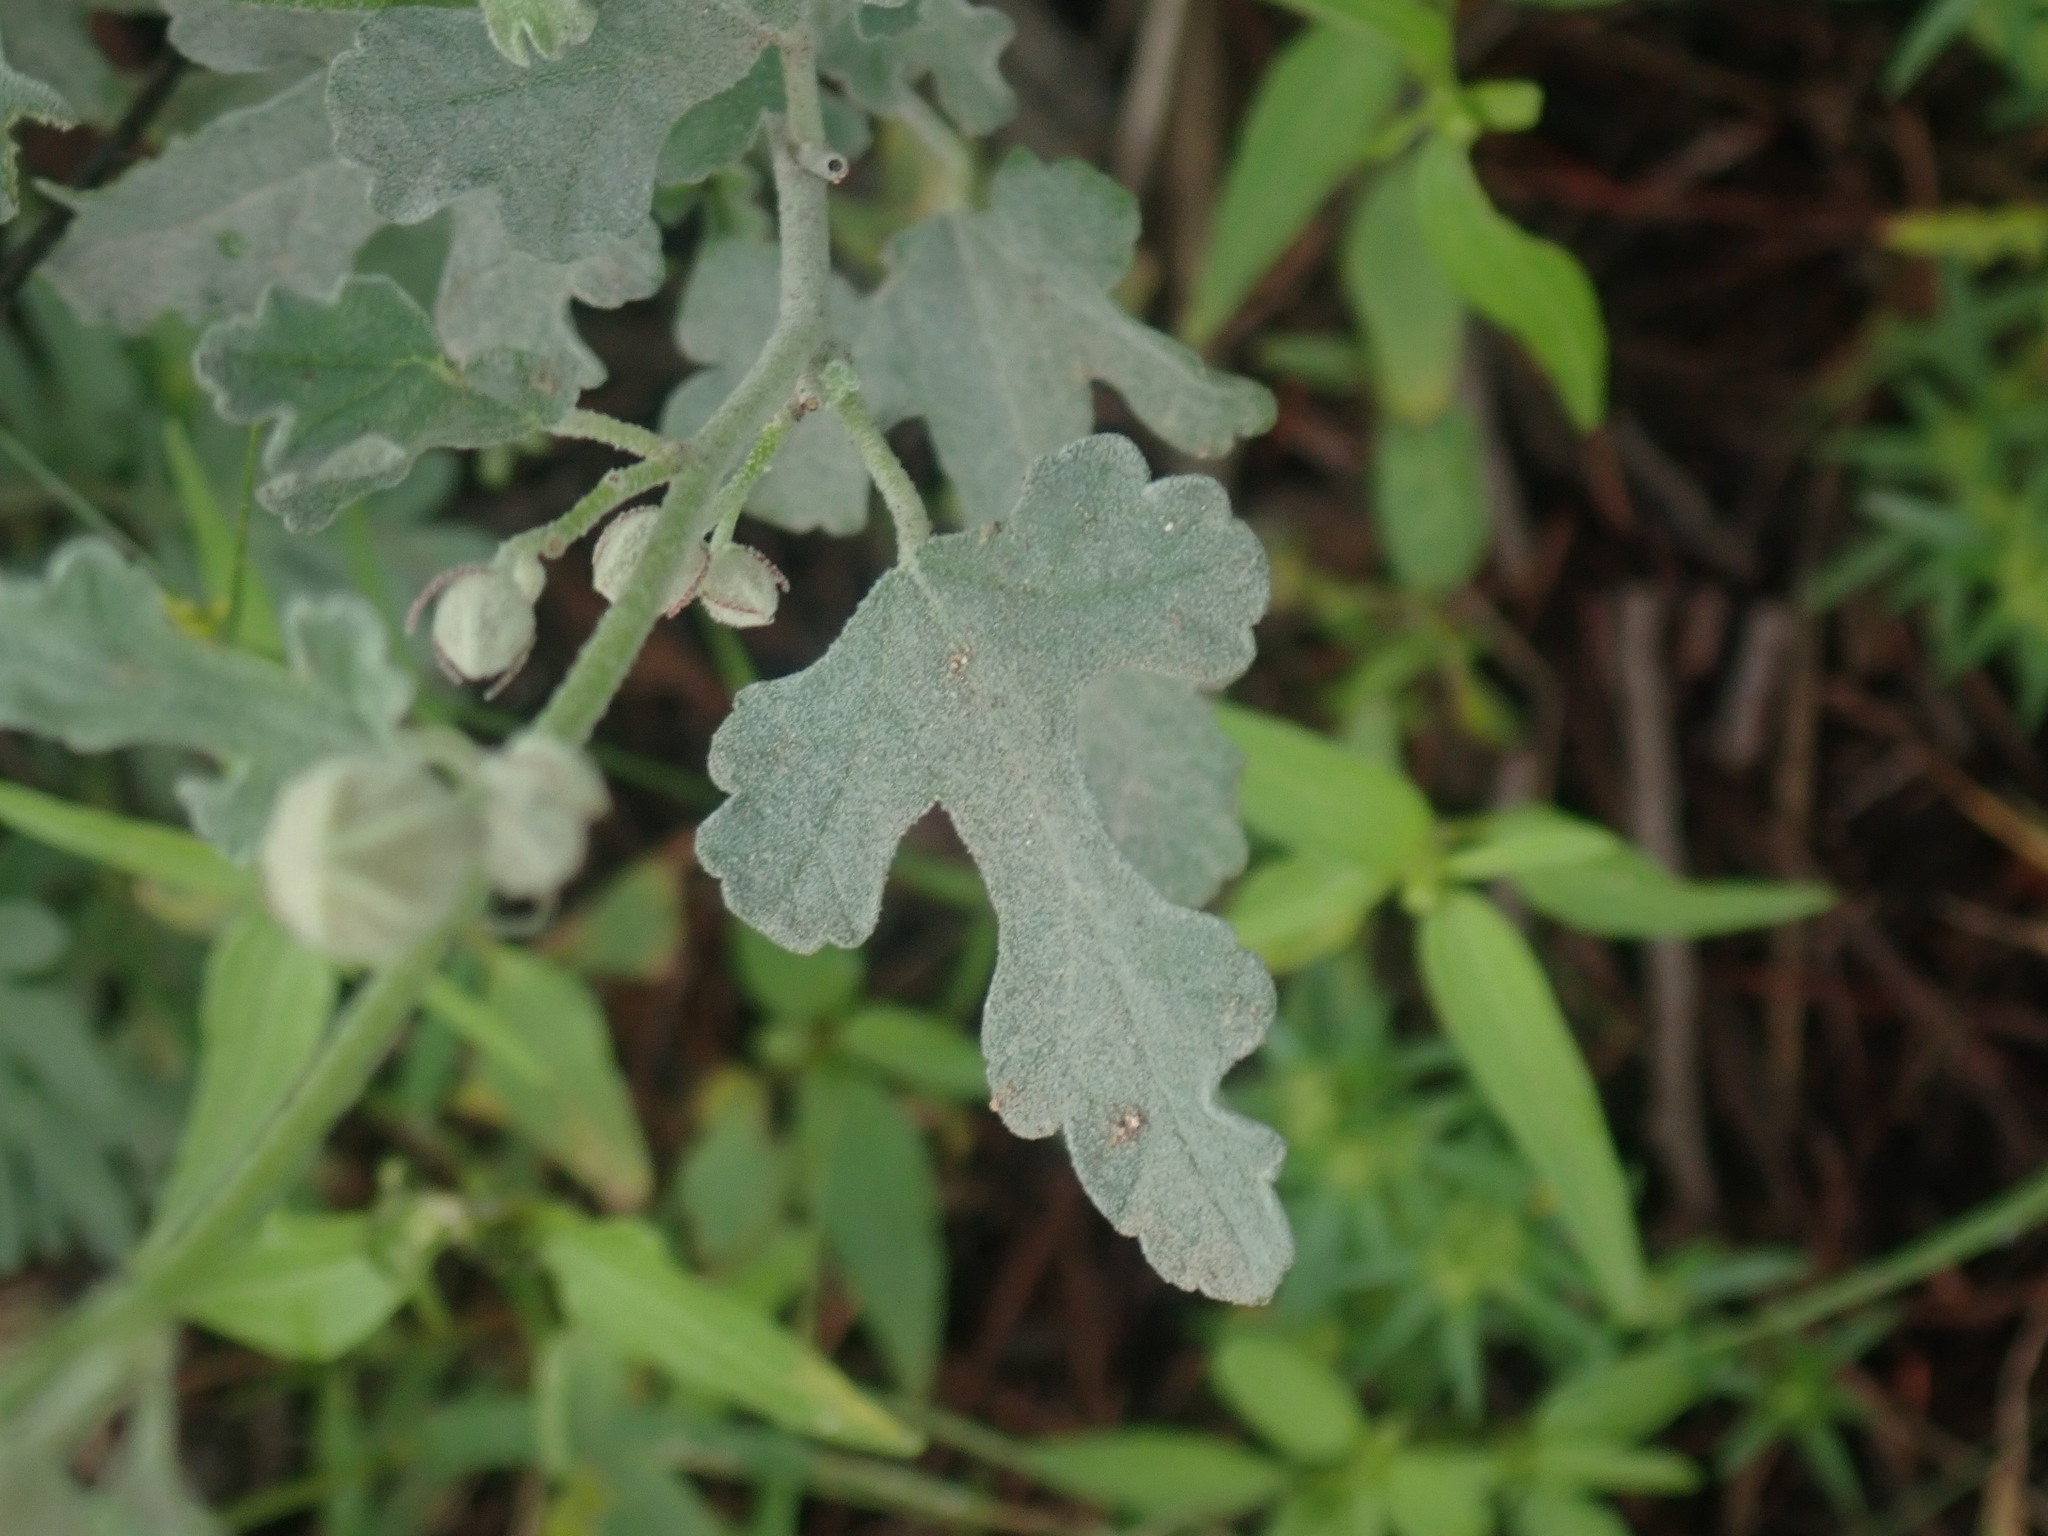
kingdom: Plantae
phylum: Tracheophyta
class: Magnoliopsida
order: Malvales
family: Malvaceae
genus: Sphaeralcea
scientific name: Sphaeralcea laxa
